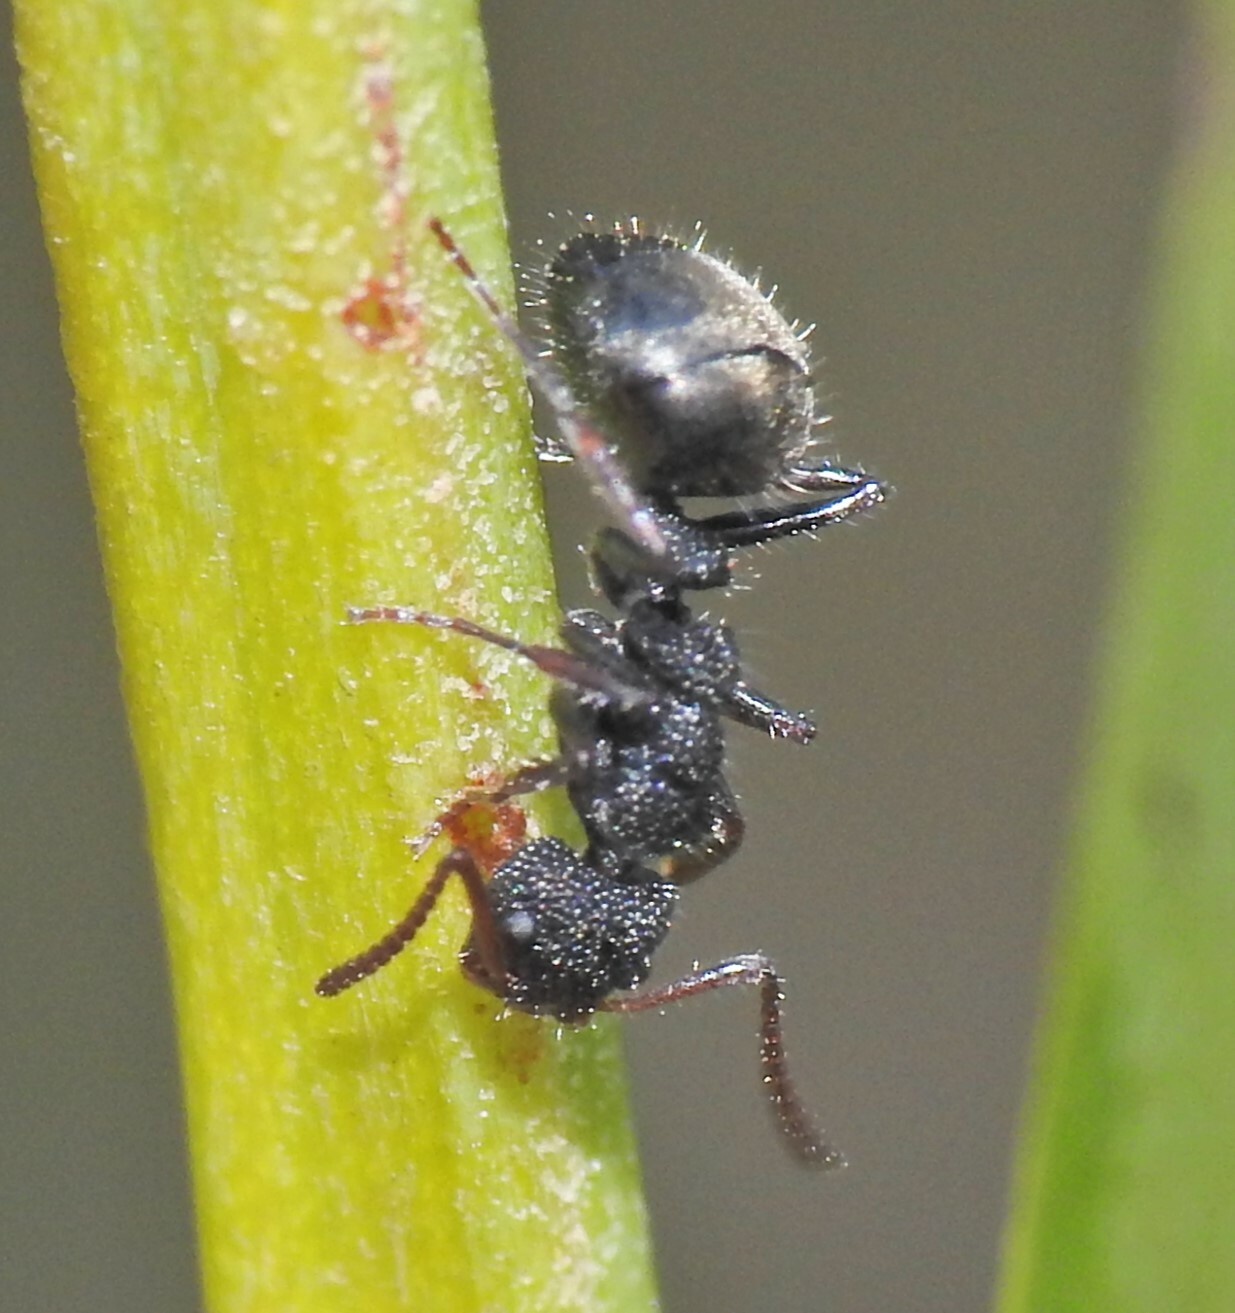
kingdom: Animalia
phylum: Arthropoda
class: Insecta
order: Hymenoptera
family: Formicidae
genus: Dolichoderus
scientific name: Dolichoderus scrobiculatus
